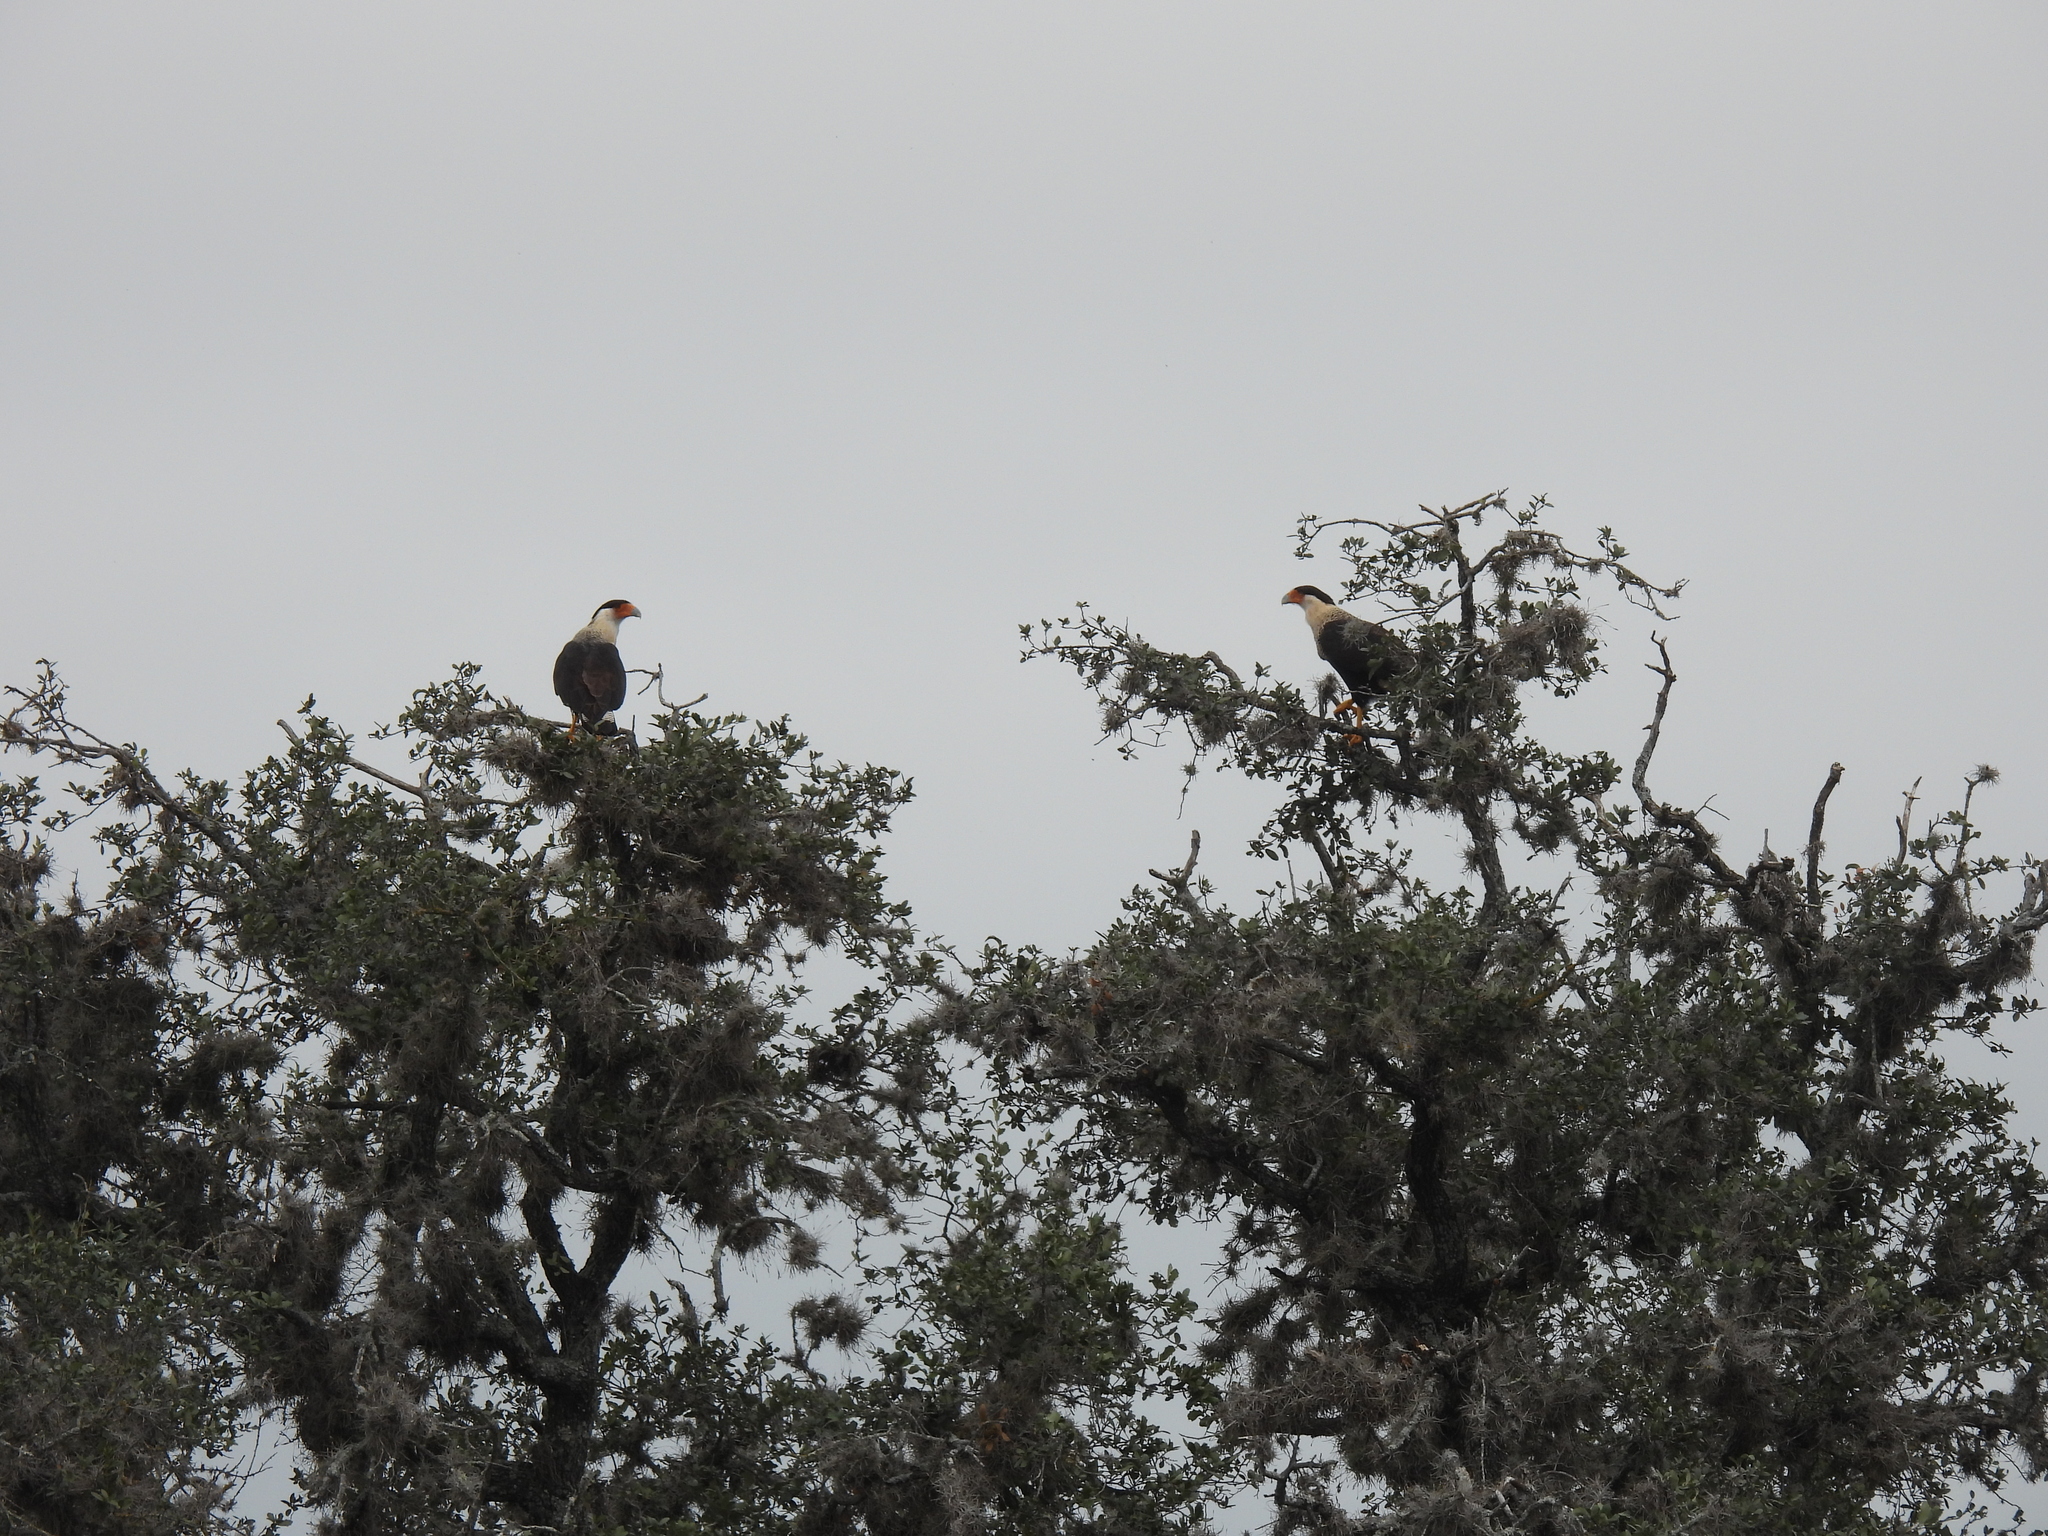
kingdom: Animalia
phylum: Chordata
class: Aves
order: Falconiformes
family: Falconidae
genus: Caracara
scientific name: Caracara plancus
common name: Southern caracara
